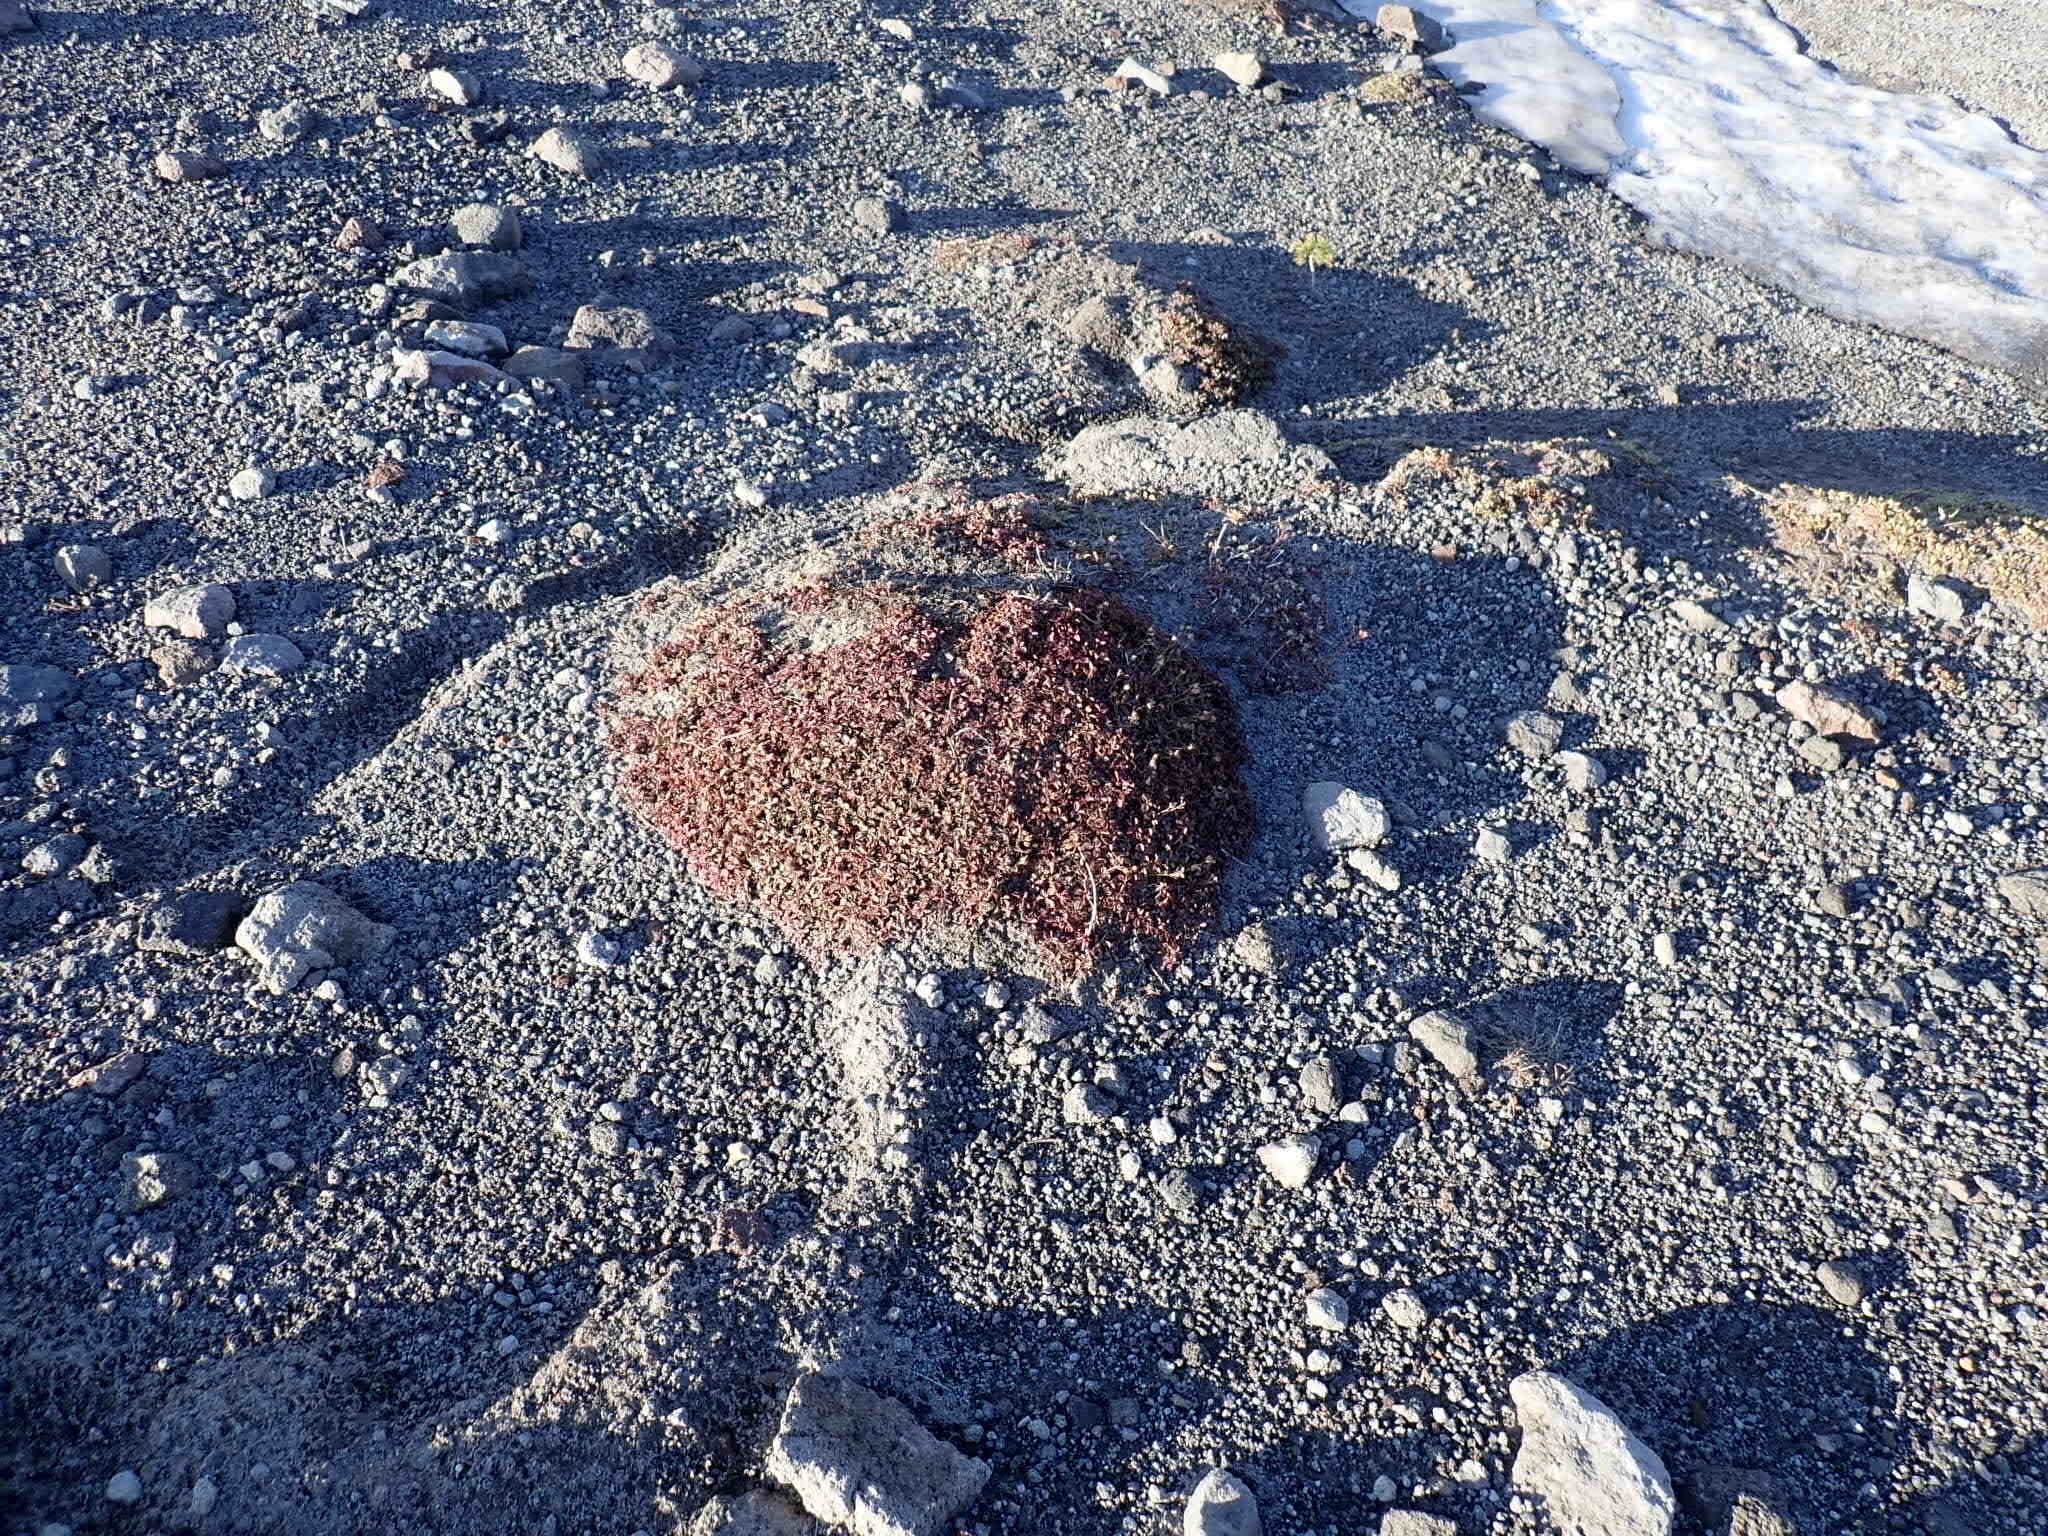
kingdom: Plantae
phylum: Tracheophyta
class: Magnoliopsida
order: Lamiales
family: Plantaginaceae
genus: Penstemon
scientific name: Penstemon davidsonii
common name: Davidson's penstemon
